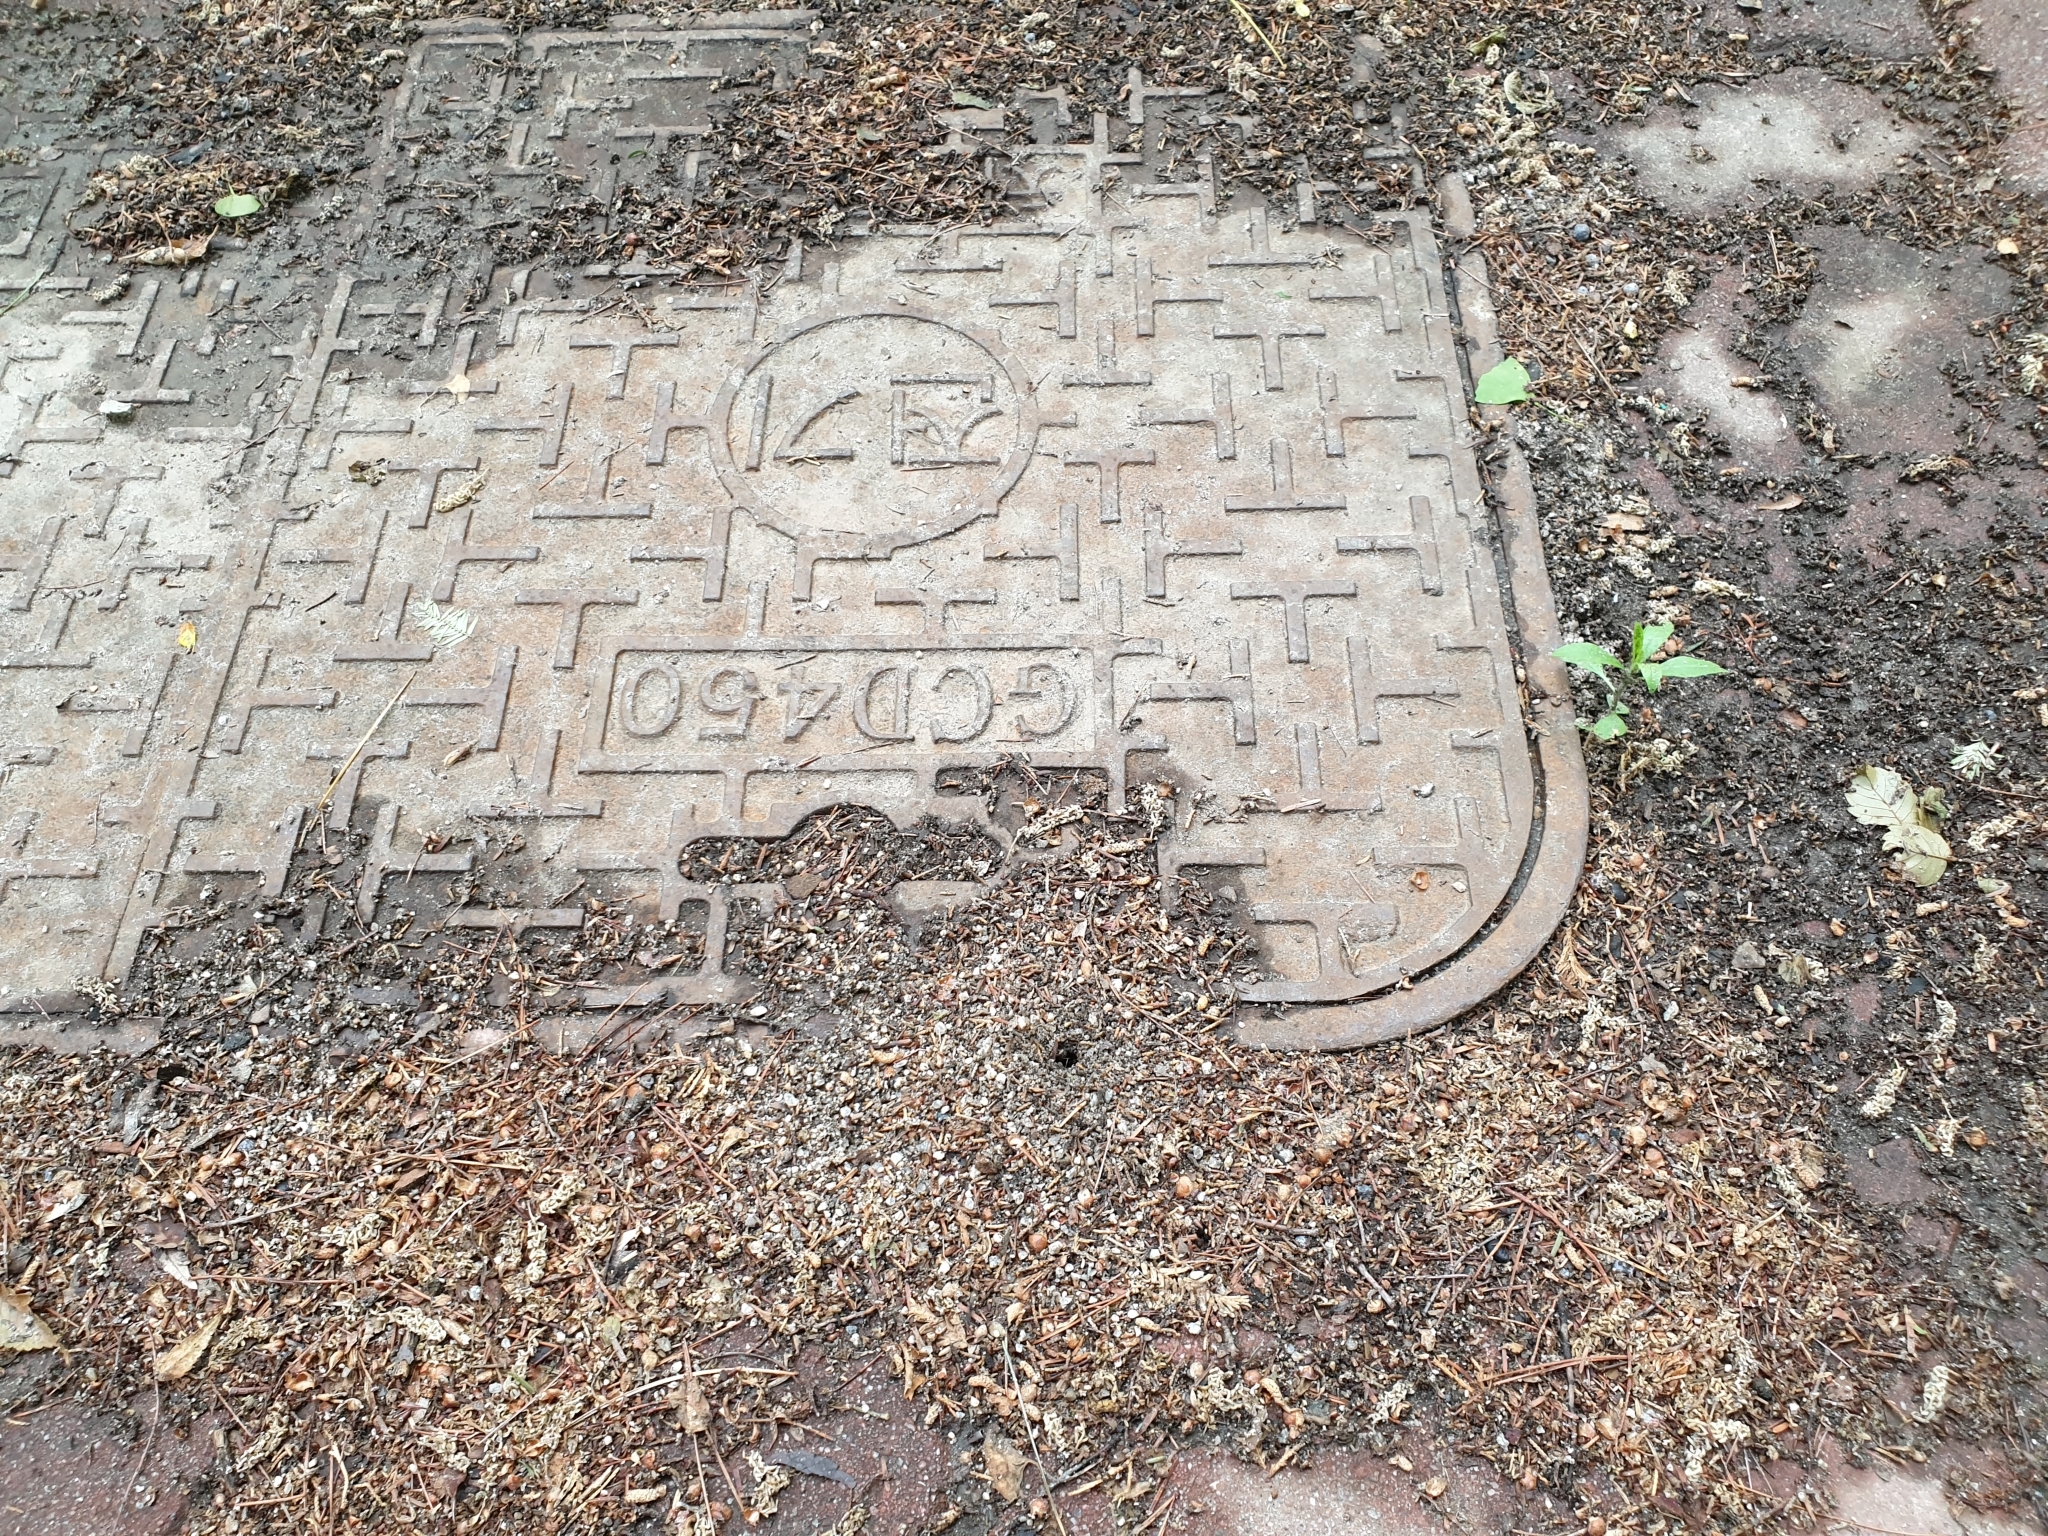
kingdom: Animalia
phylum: Arthropoda
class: Insecta
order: Hymenoptera
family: Formicidae
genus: Formica
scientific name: Formica japonica
